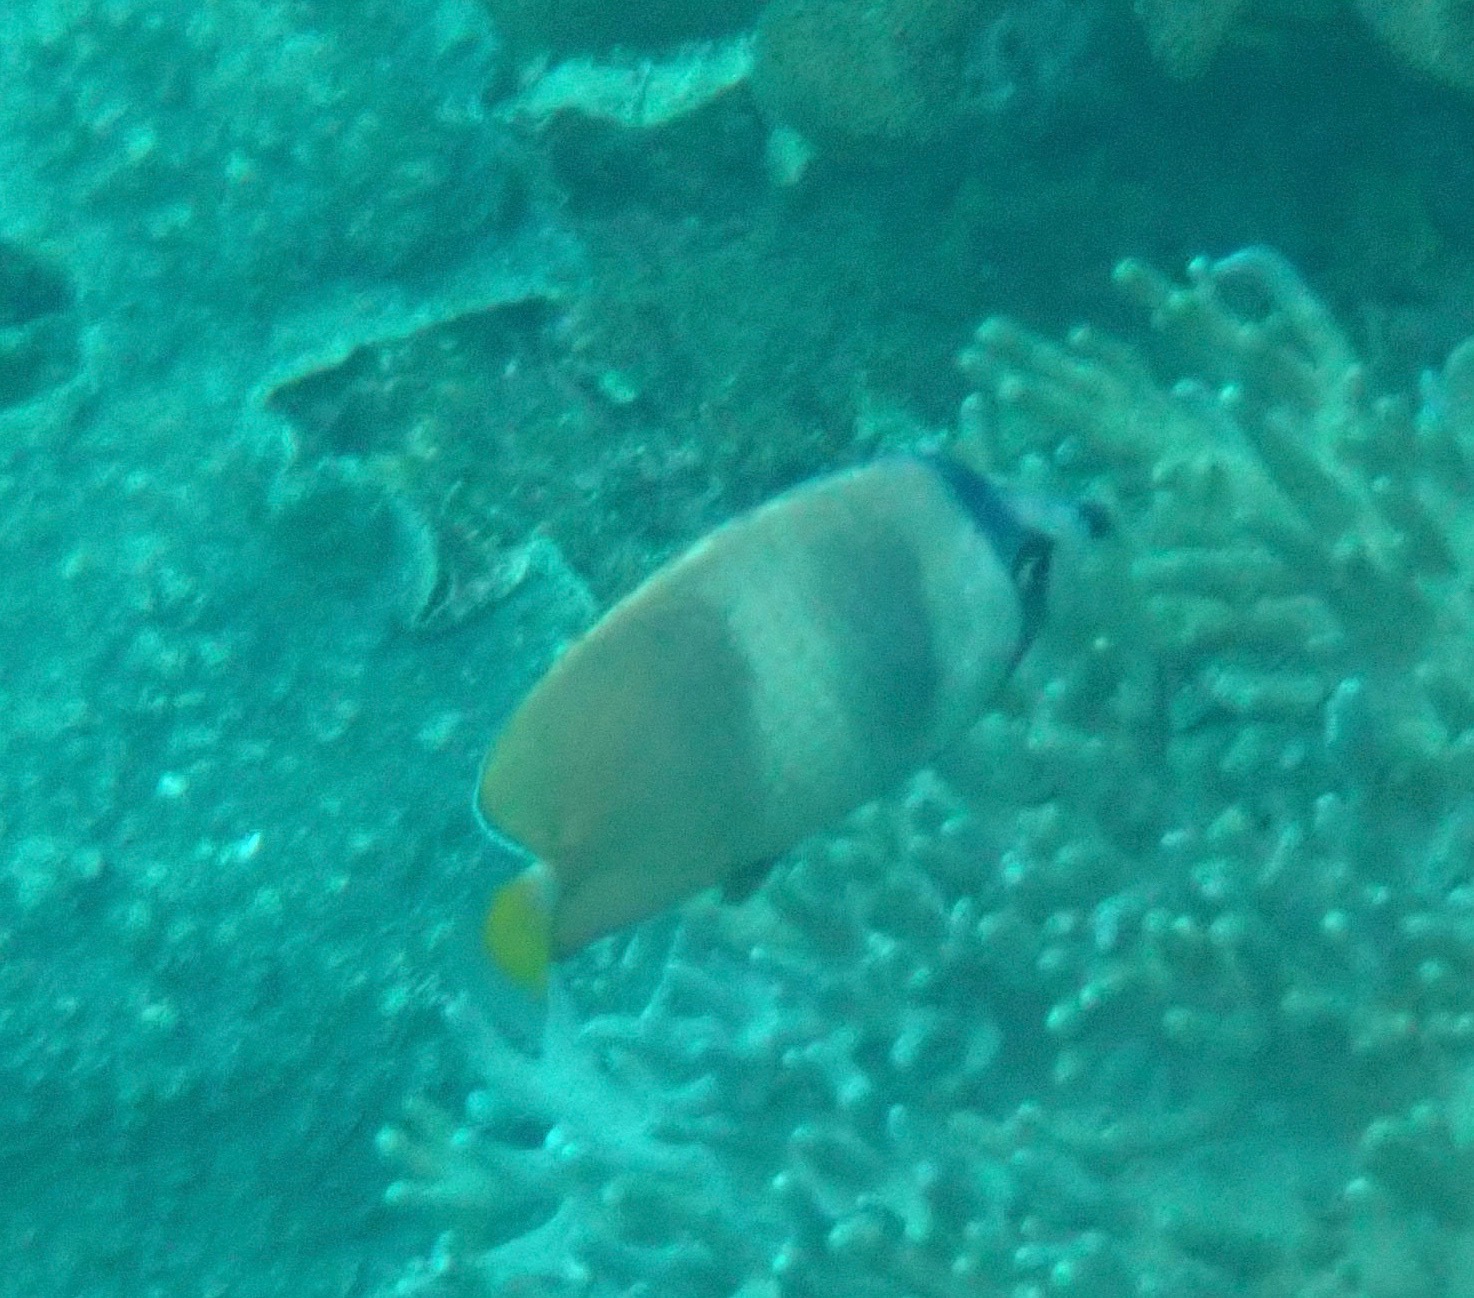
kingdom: Animalia
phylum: Chordata
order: Perciformes
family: Chaetodontidae
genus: Chaetodon
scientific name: Chaetodon kleinii
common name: Klein's butterflyfish
